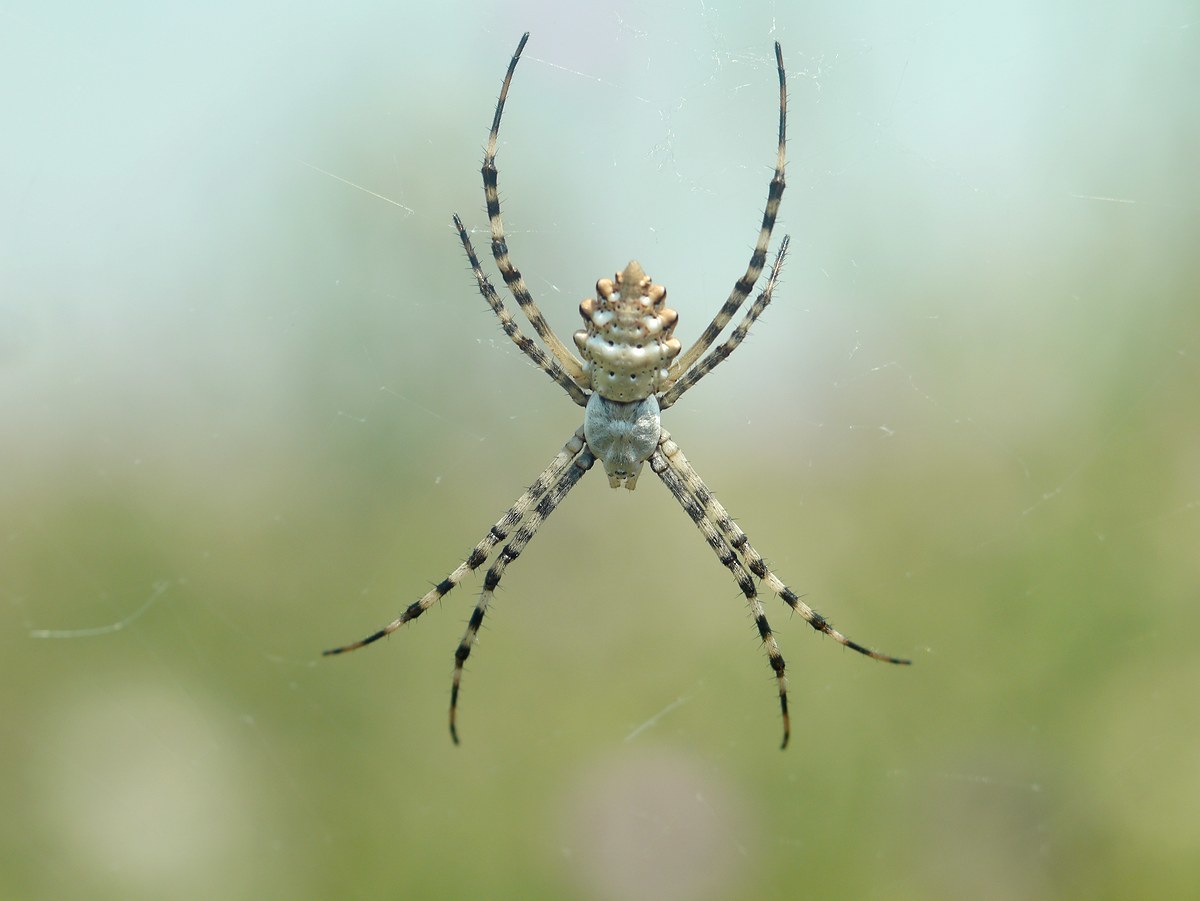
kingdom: Animalia
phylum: Arthropoda
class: Arachnida
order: Araneae
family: Araneidae
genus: Argiope
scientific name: Argiope lobata
